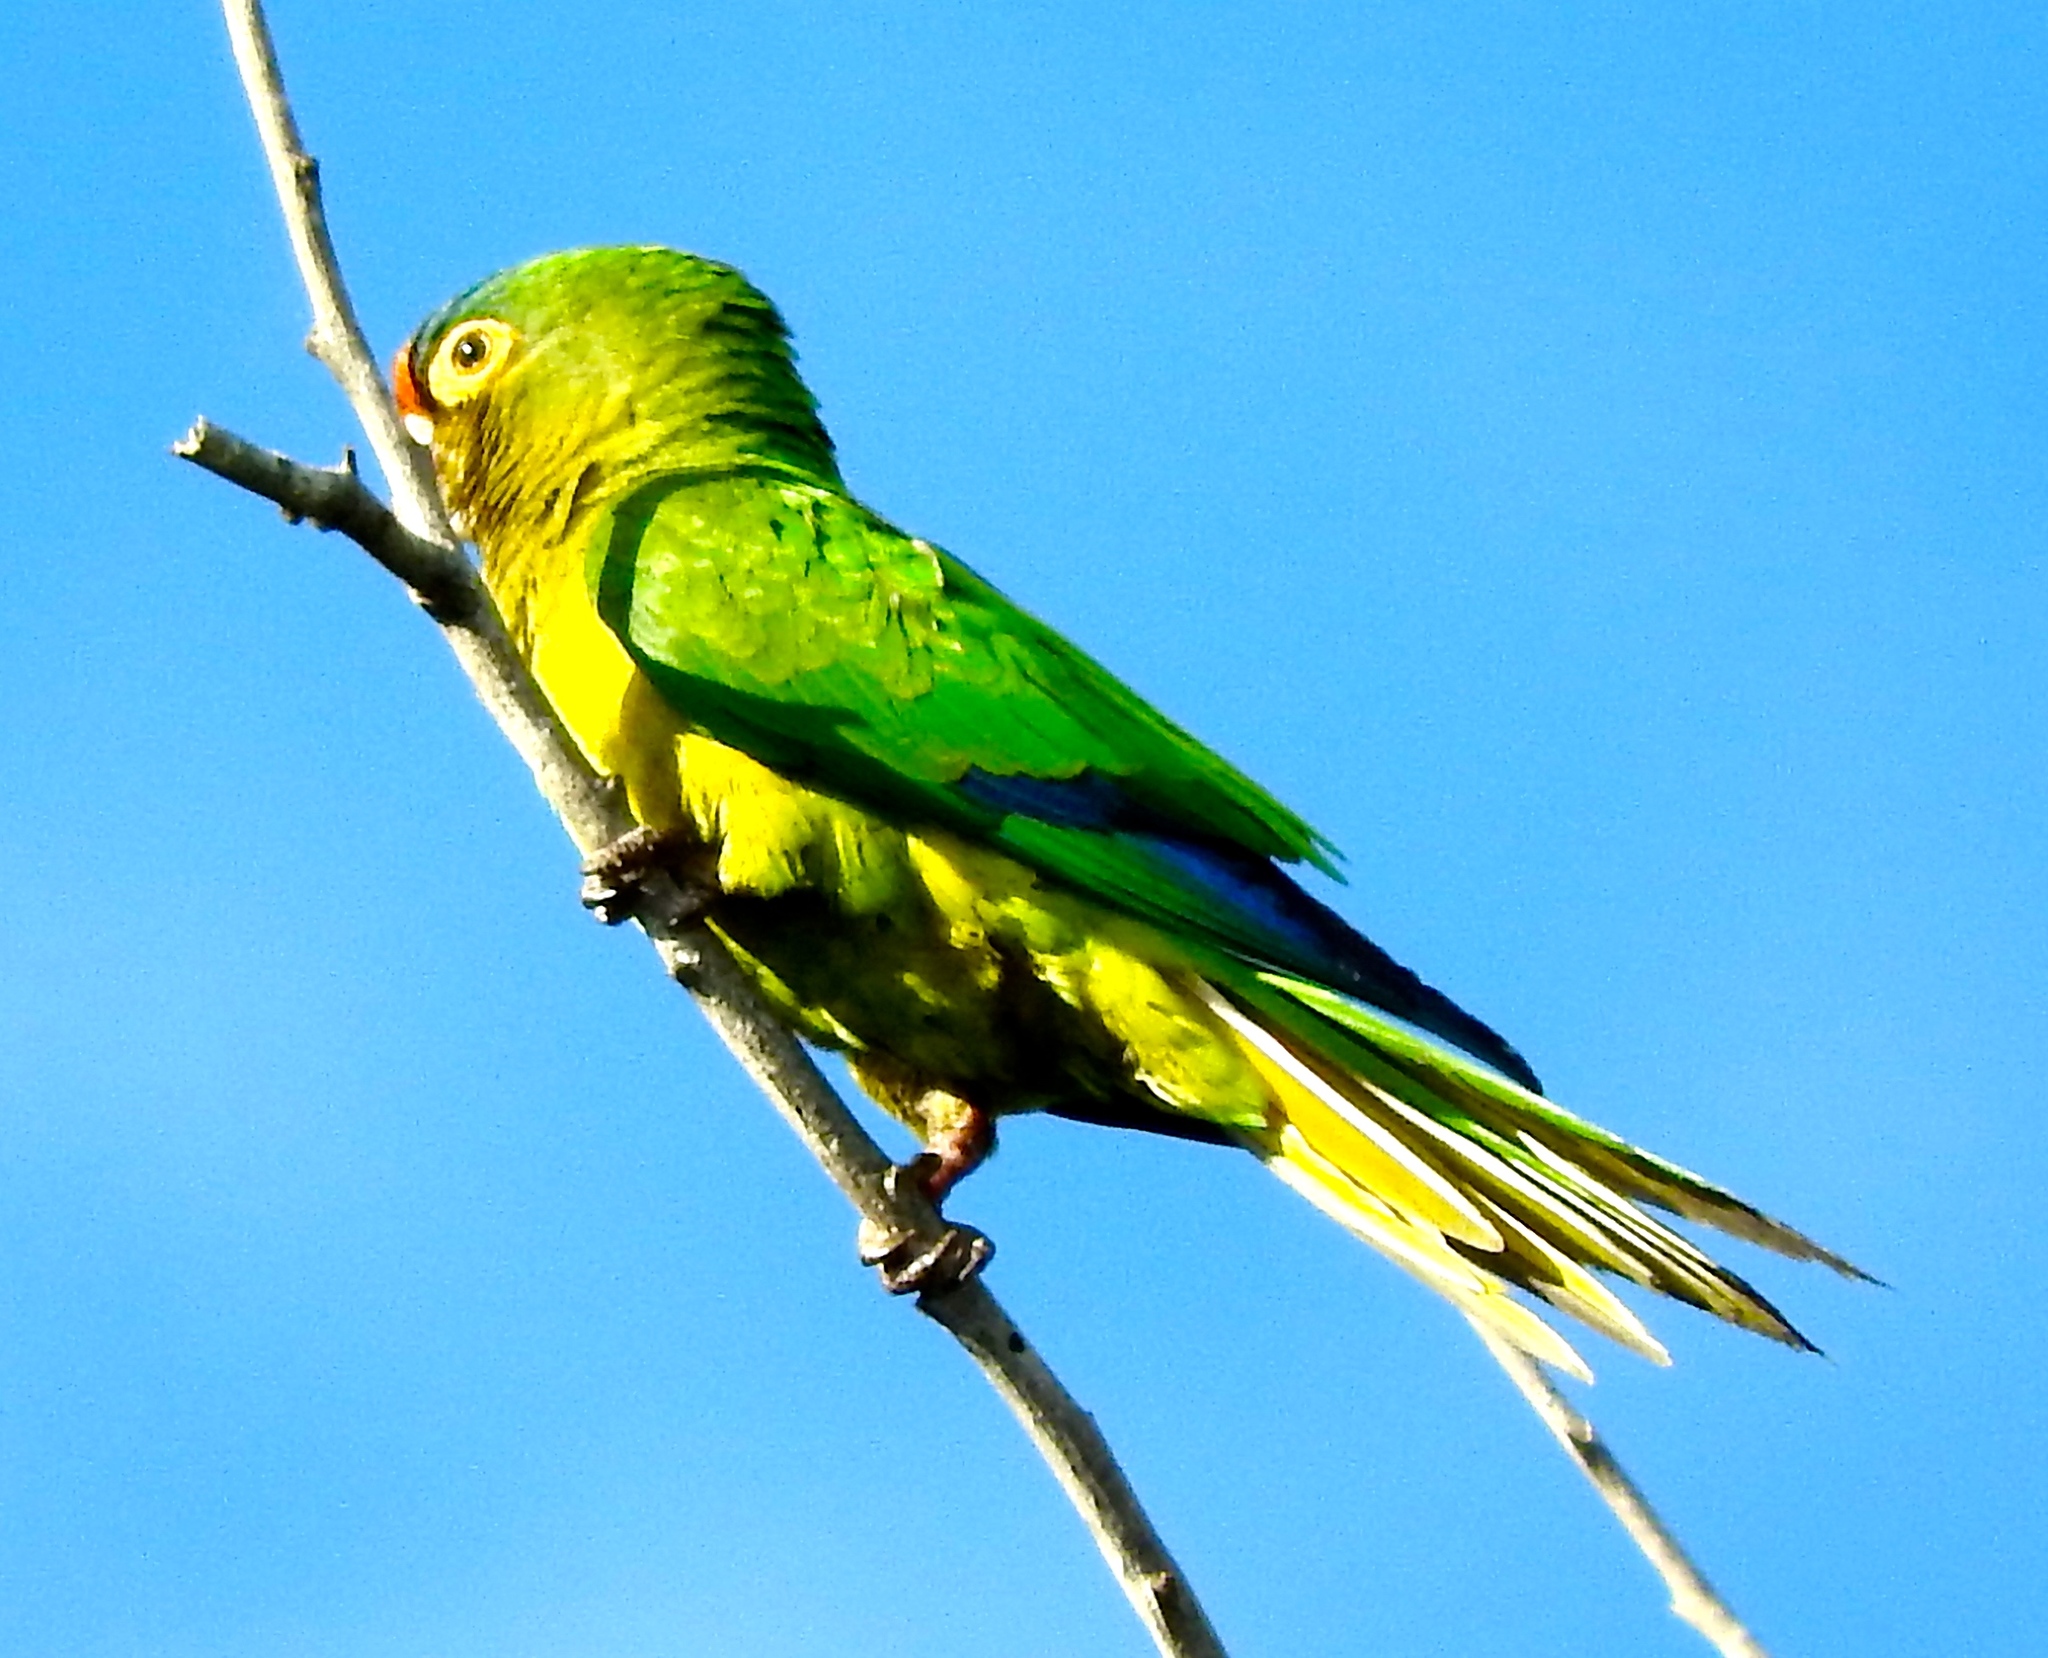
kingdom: Animalia
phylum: Chordata
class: Aves
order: Psittaciformes
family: Psittacidae
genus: Aratinga
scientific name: Aratinga canicularis
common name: Orange-fronted parakeet
